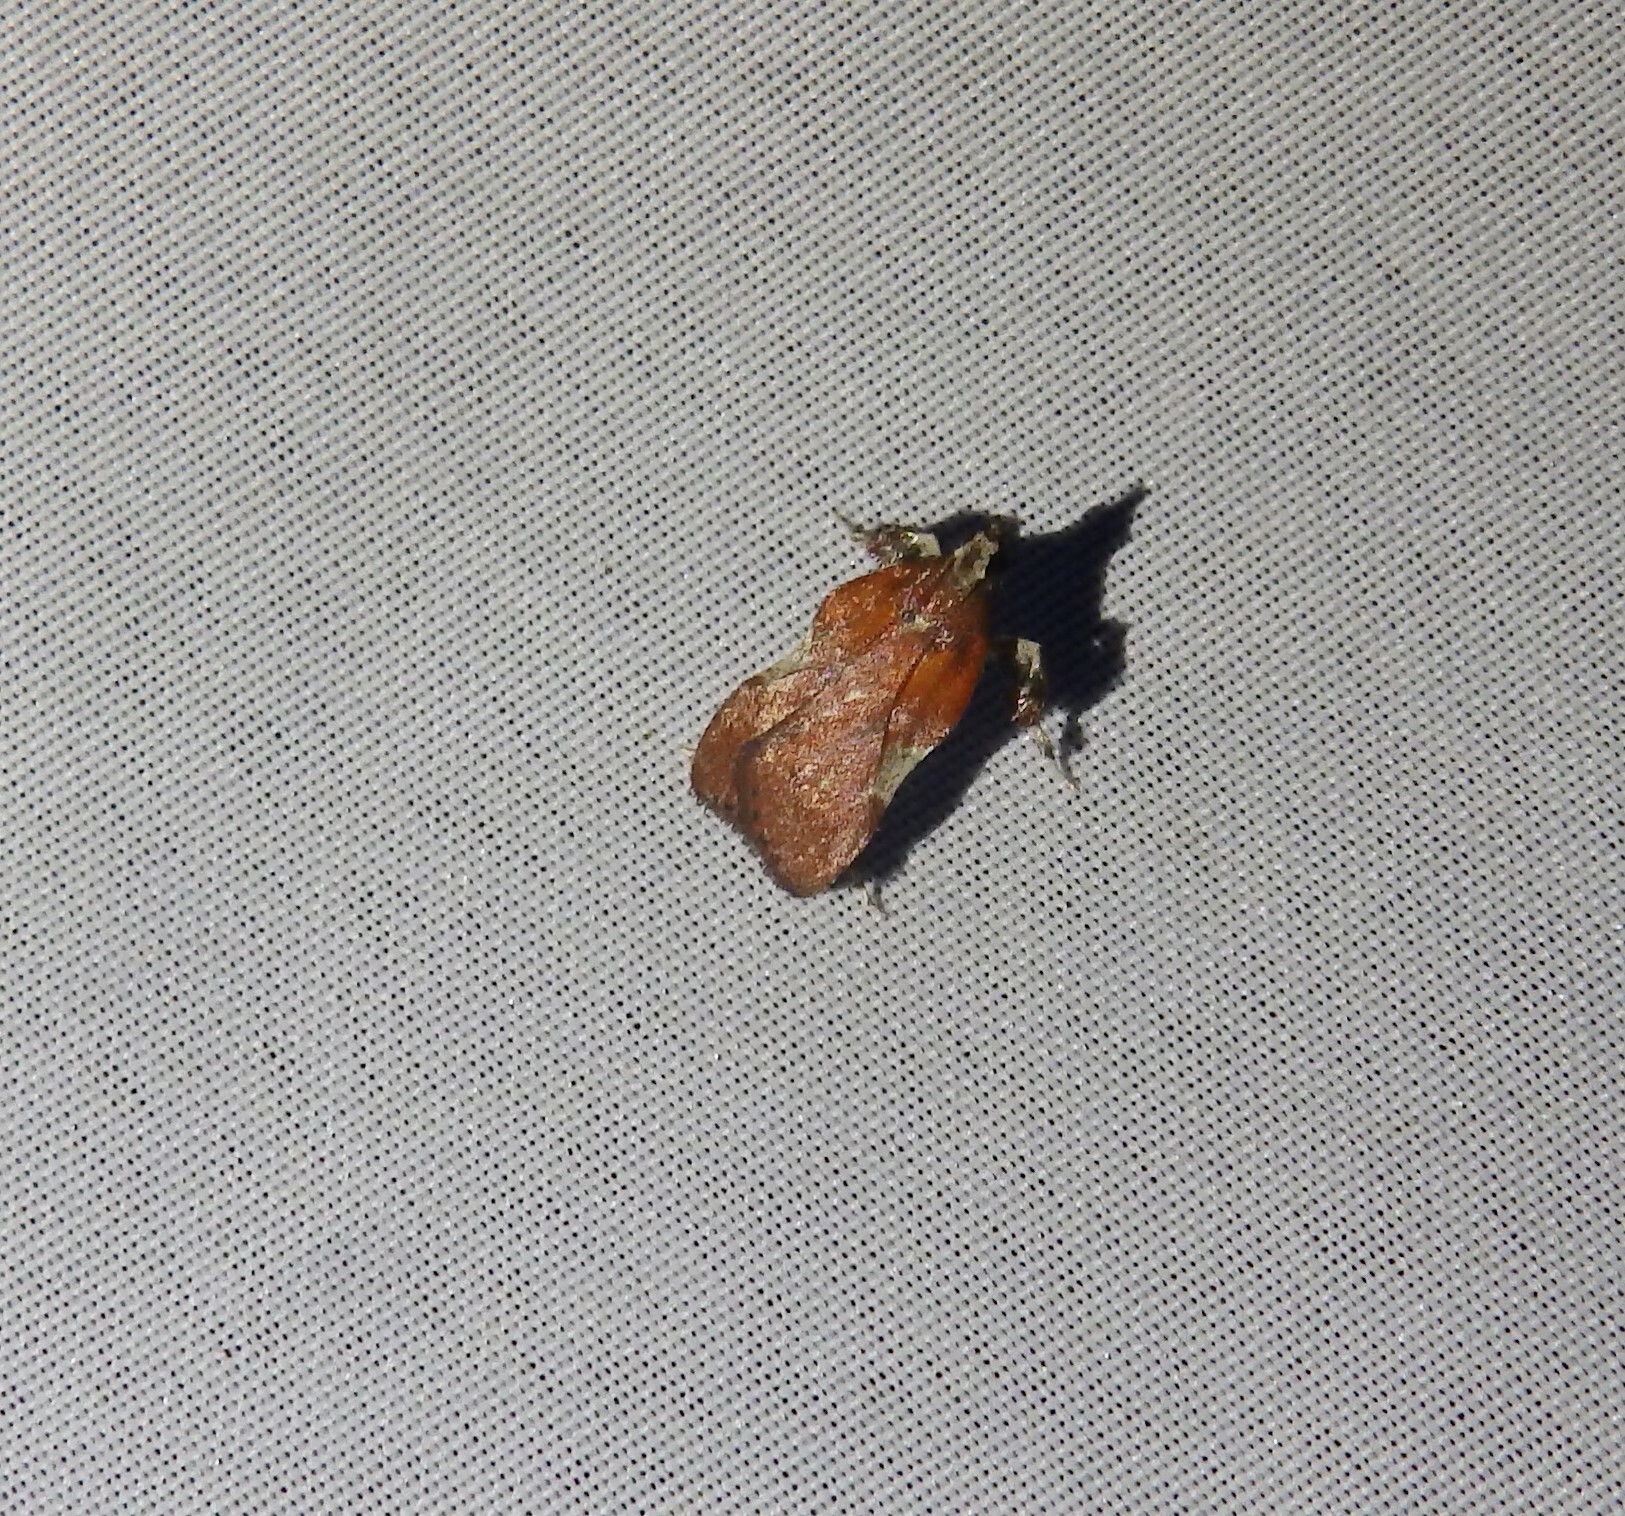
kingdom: Animalia
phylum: Arthropoda
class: Insecta
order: Lepidoptera
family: Pyralidae
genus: Galasa
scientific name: Galasa nigrinodis
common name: Boxwood leaftier moth
